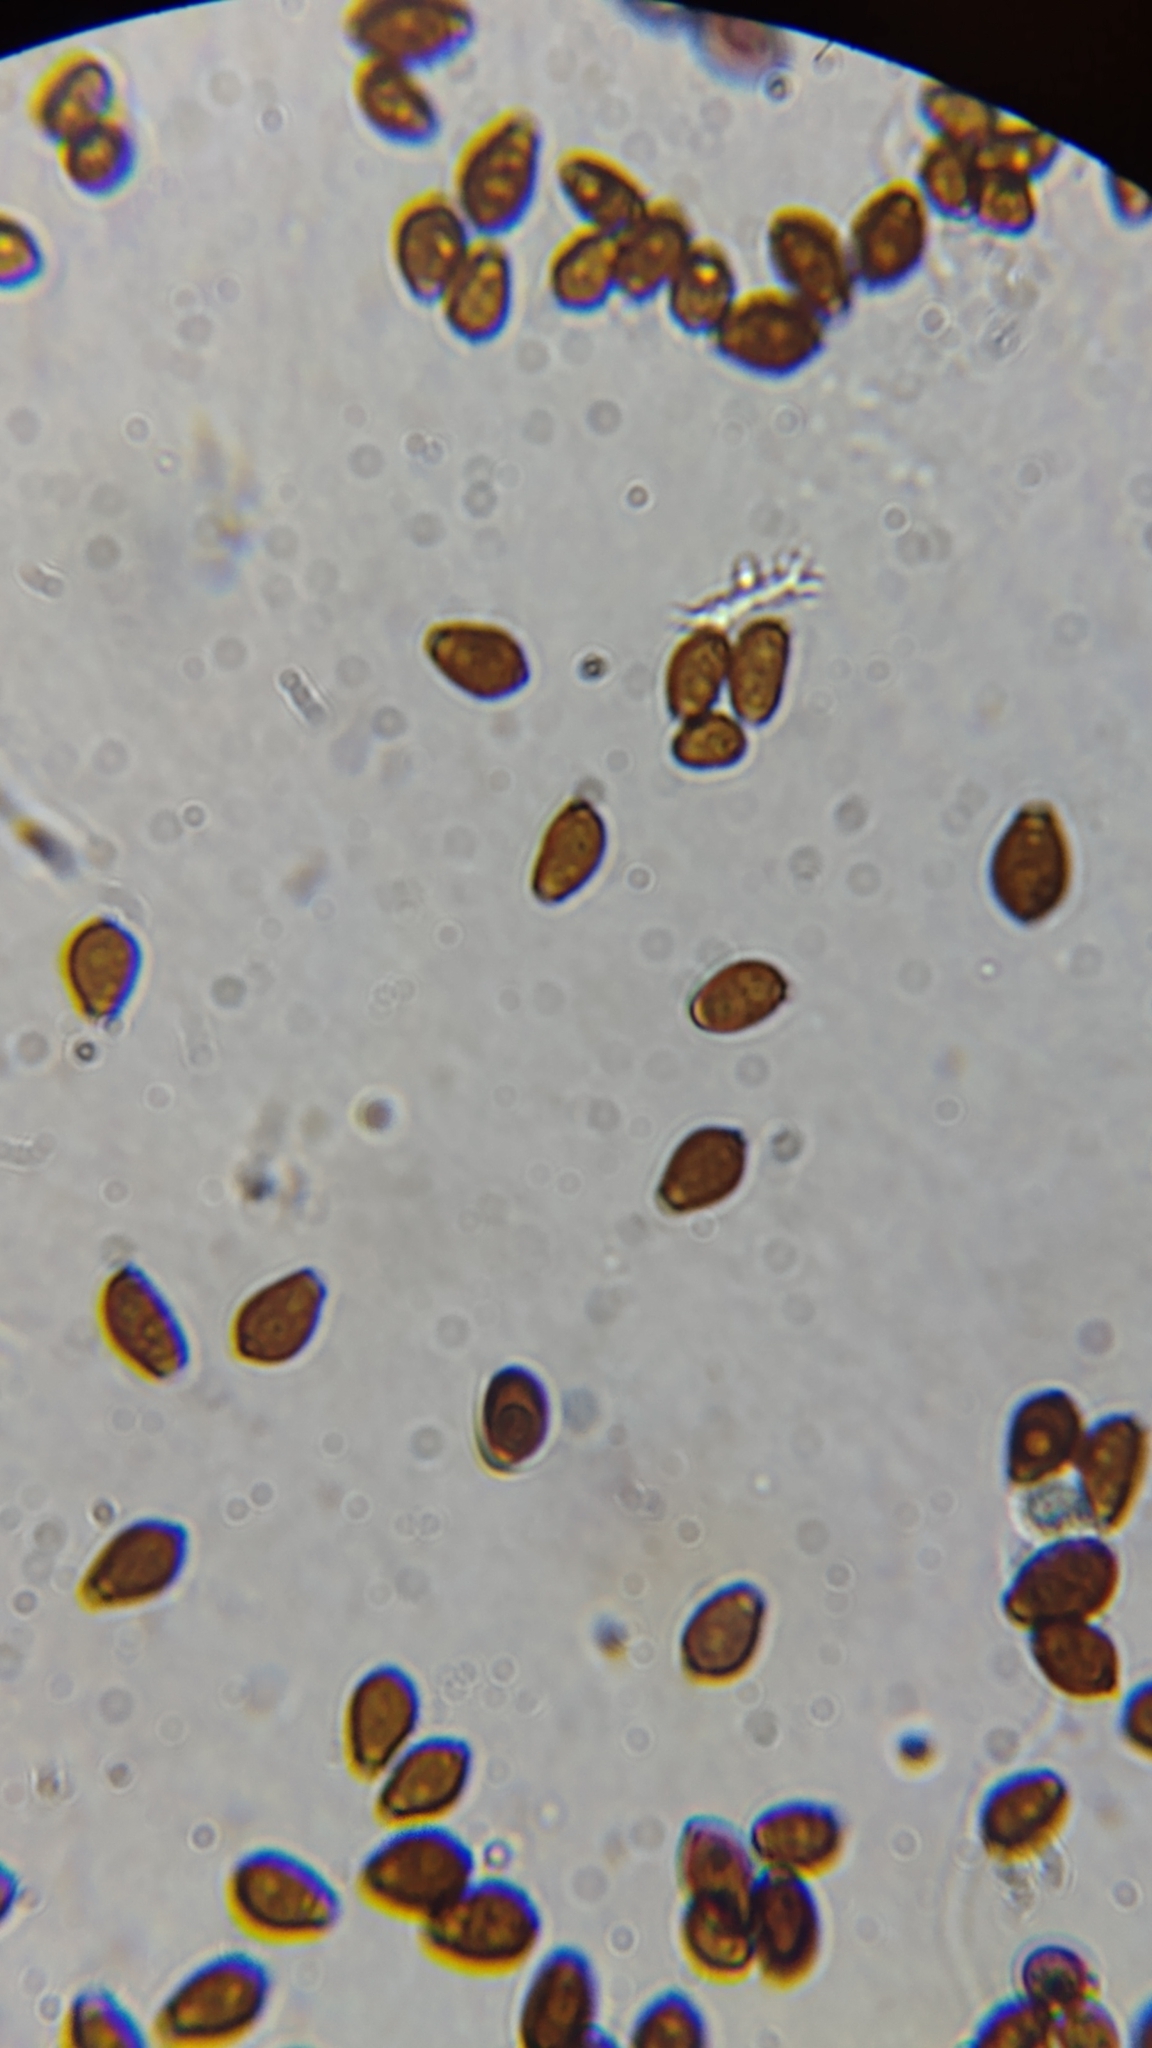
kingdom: Fungi
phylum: Basidiomycota
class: Agaricomycetes
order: Agaricales
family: Psathyrellaceae
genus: Coprinellus
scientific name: Coprinellus micaceus
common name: Glistening ink-cap
